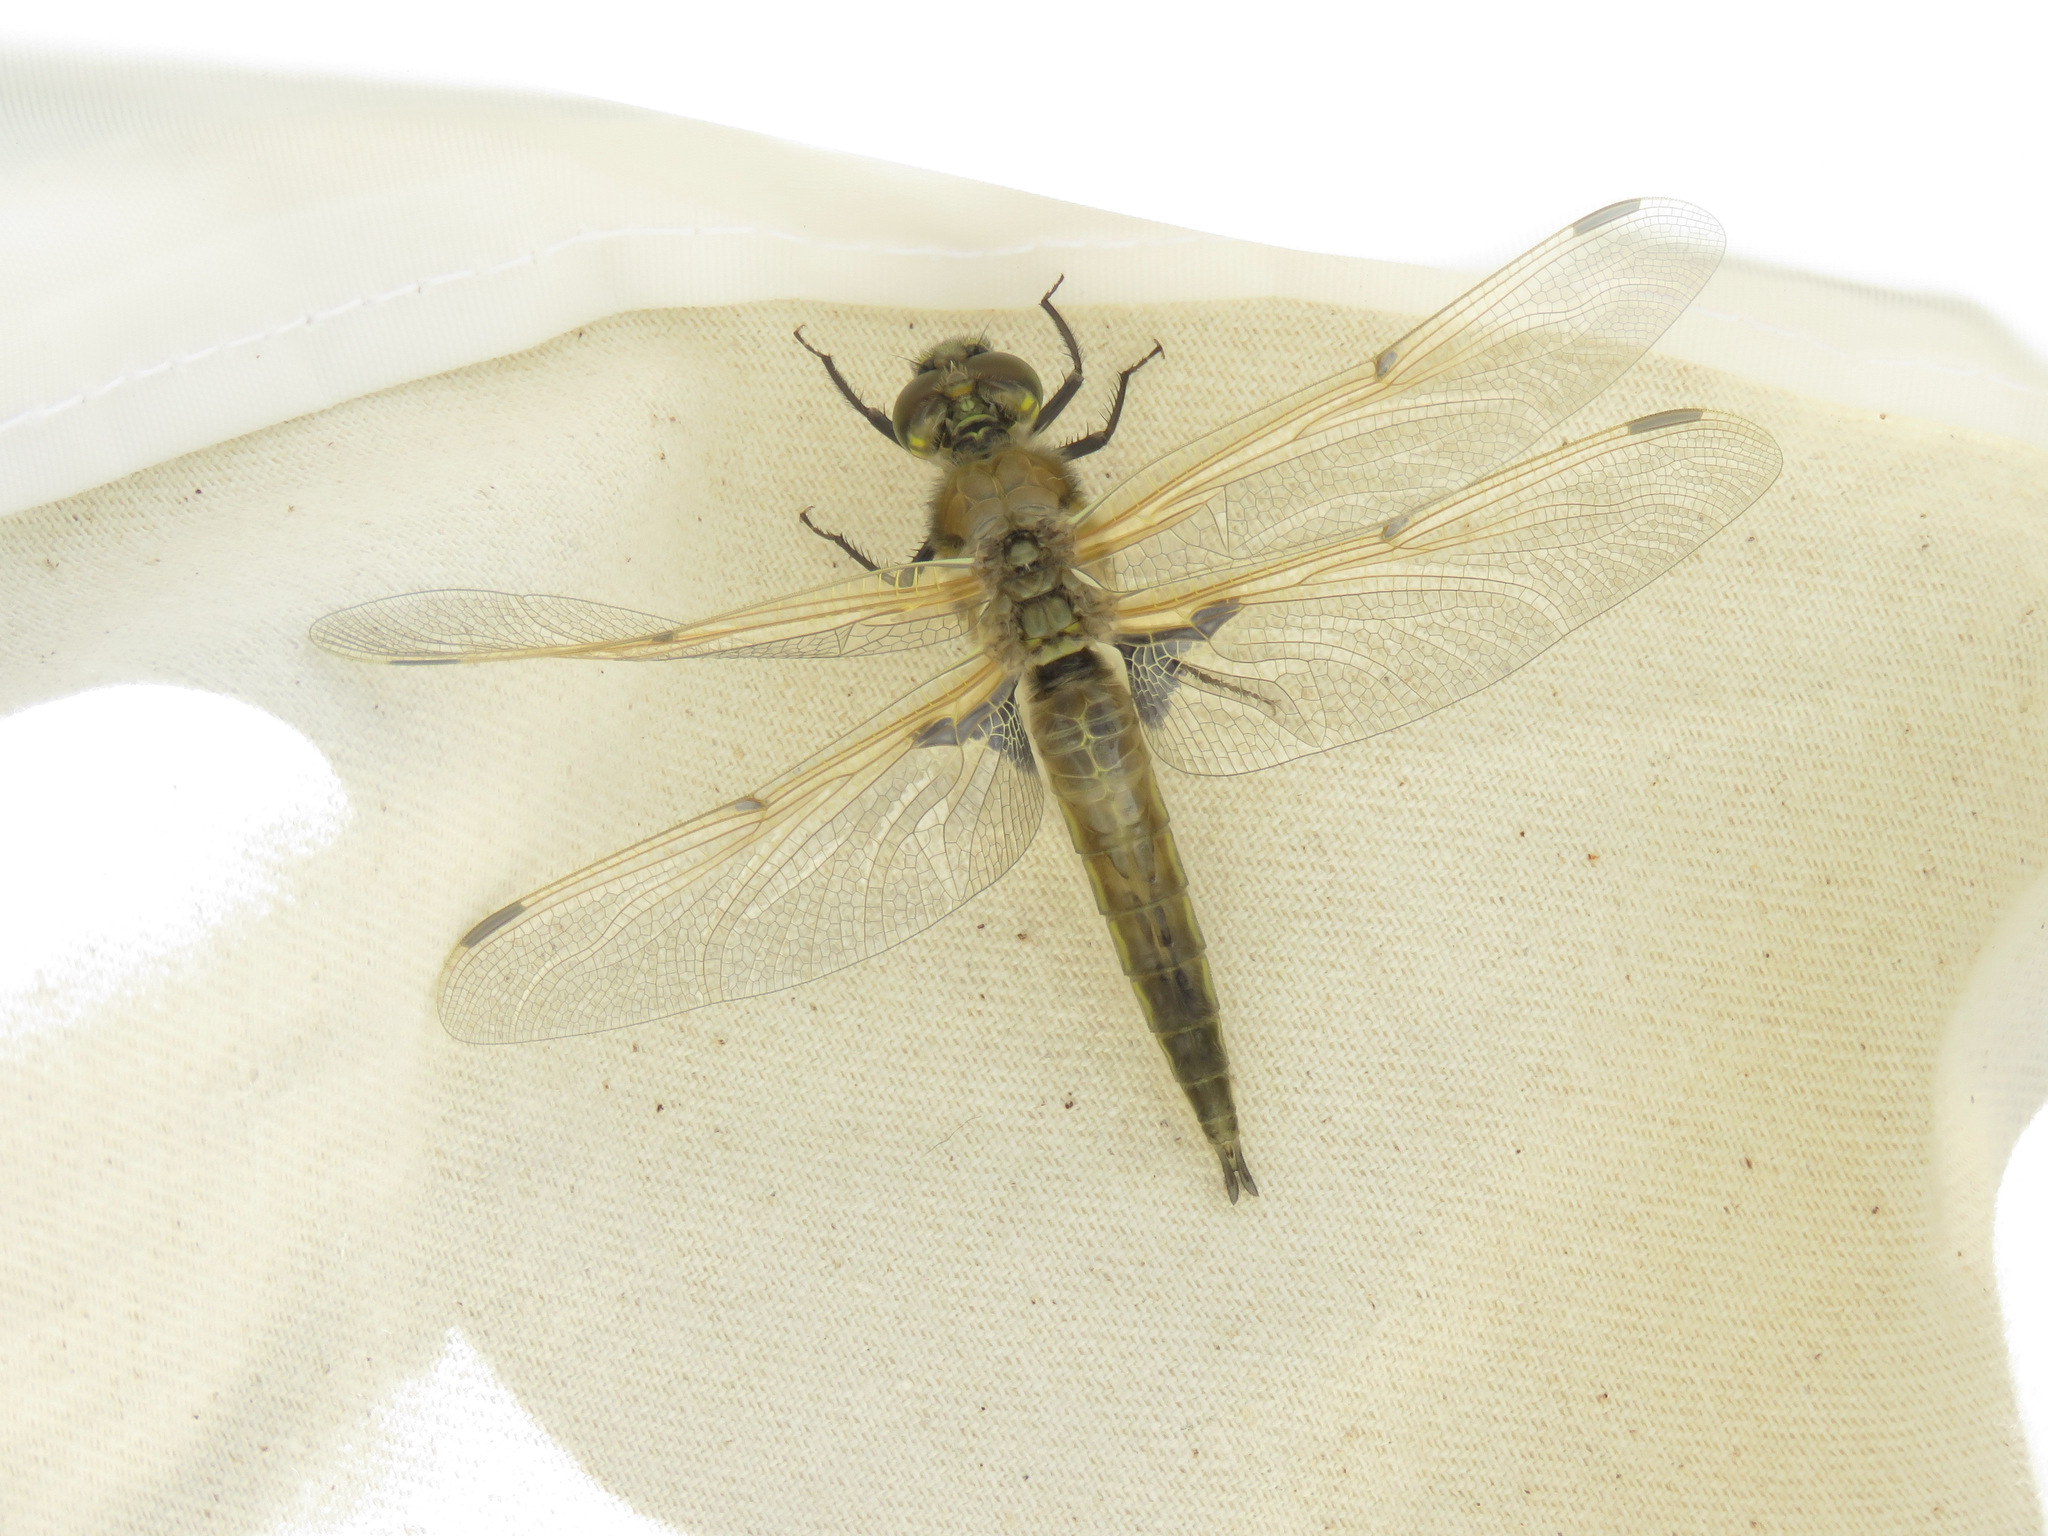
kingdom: Animalia
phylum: Arthropoda
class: Insecta
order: Odonata
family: Libellulidae
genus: Libellula
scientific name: Libellula quadrimaculata
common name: Four-spotted chaser
